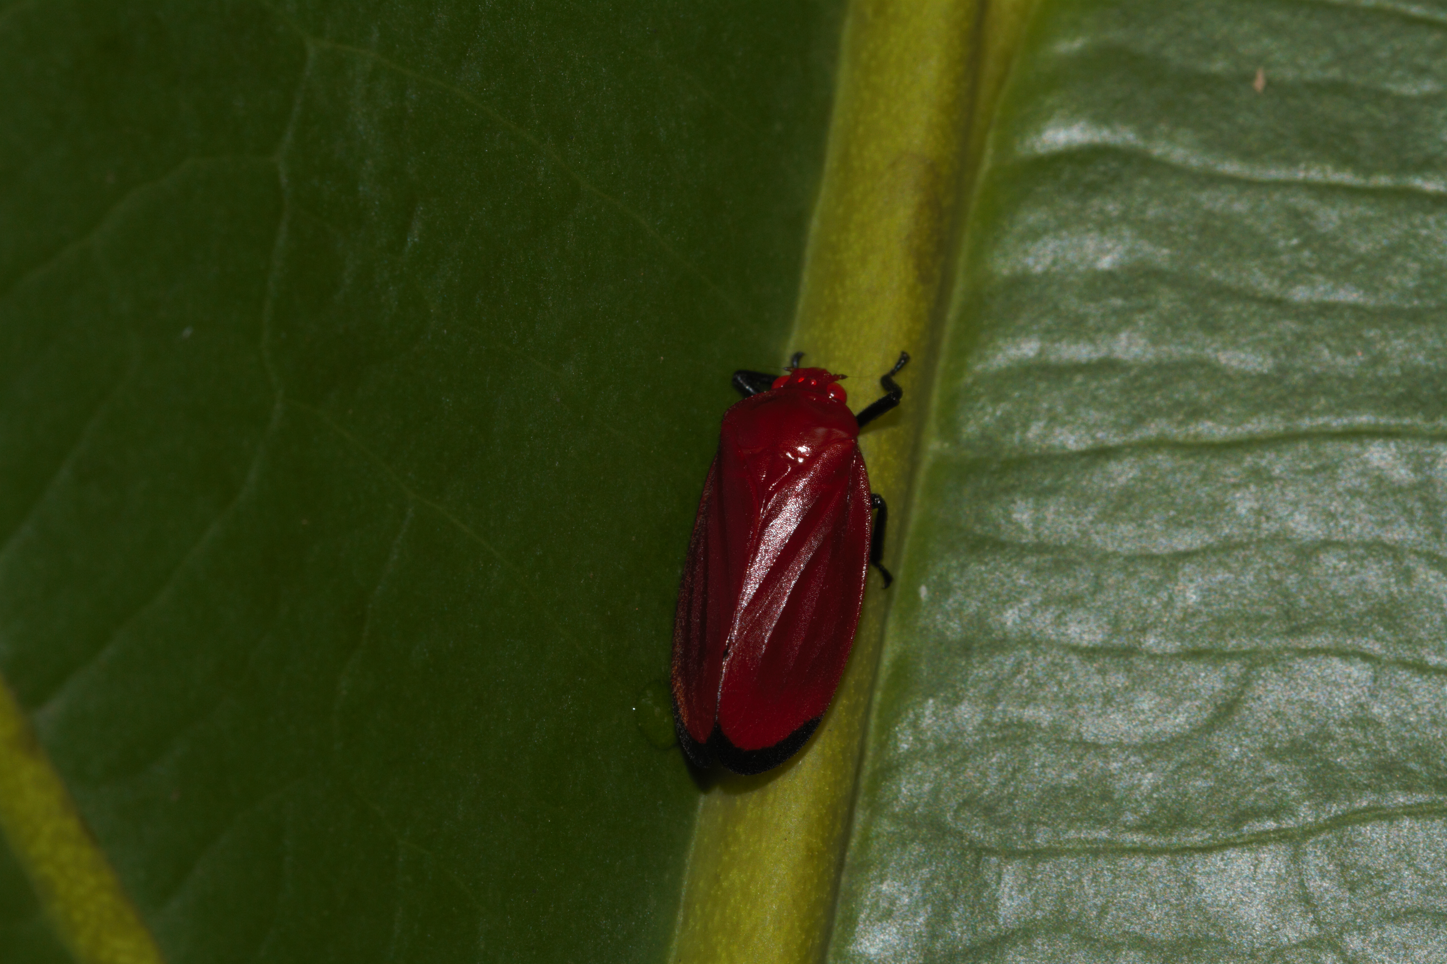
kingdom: Animalia
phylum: Arthropoda
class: Insecta
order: Hemiptera
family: Cercopidae
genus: Baetkia
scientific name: Baetkia compressa
